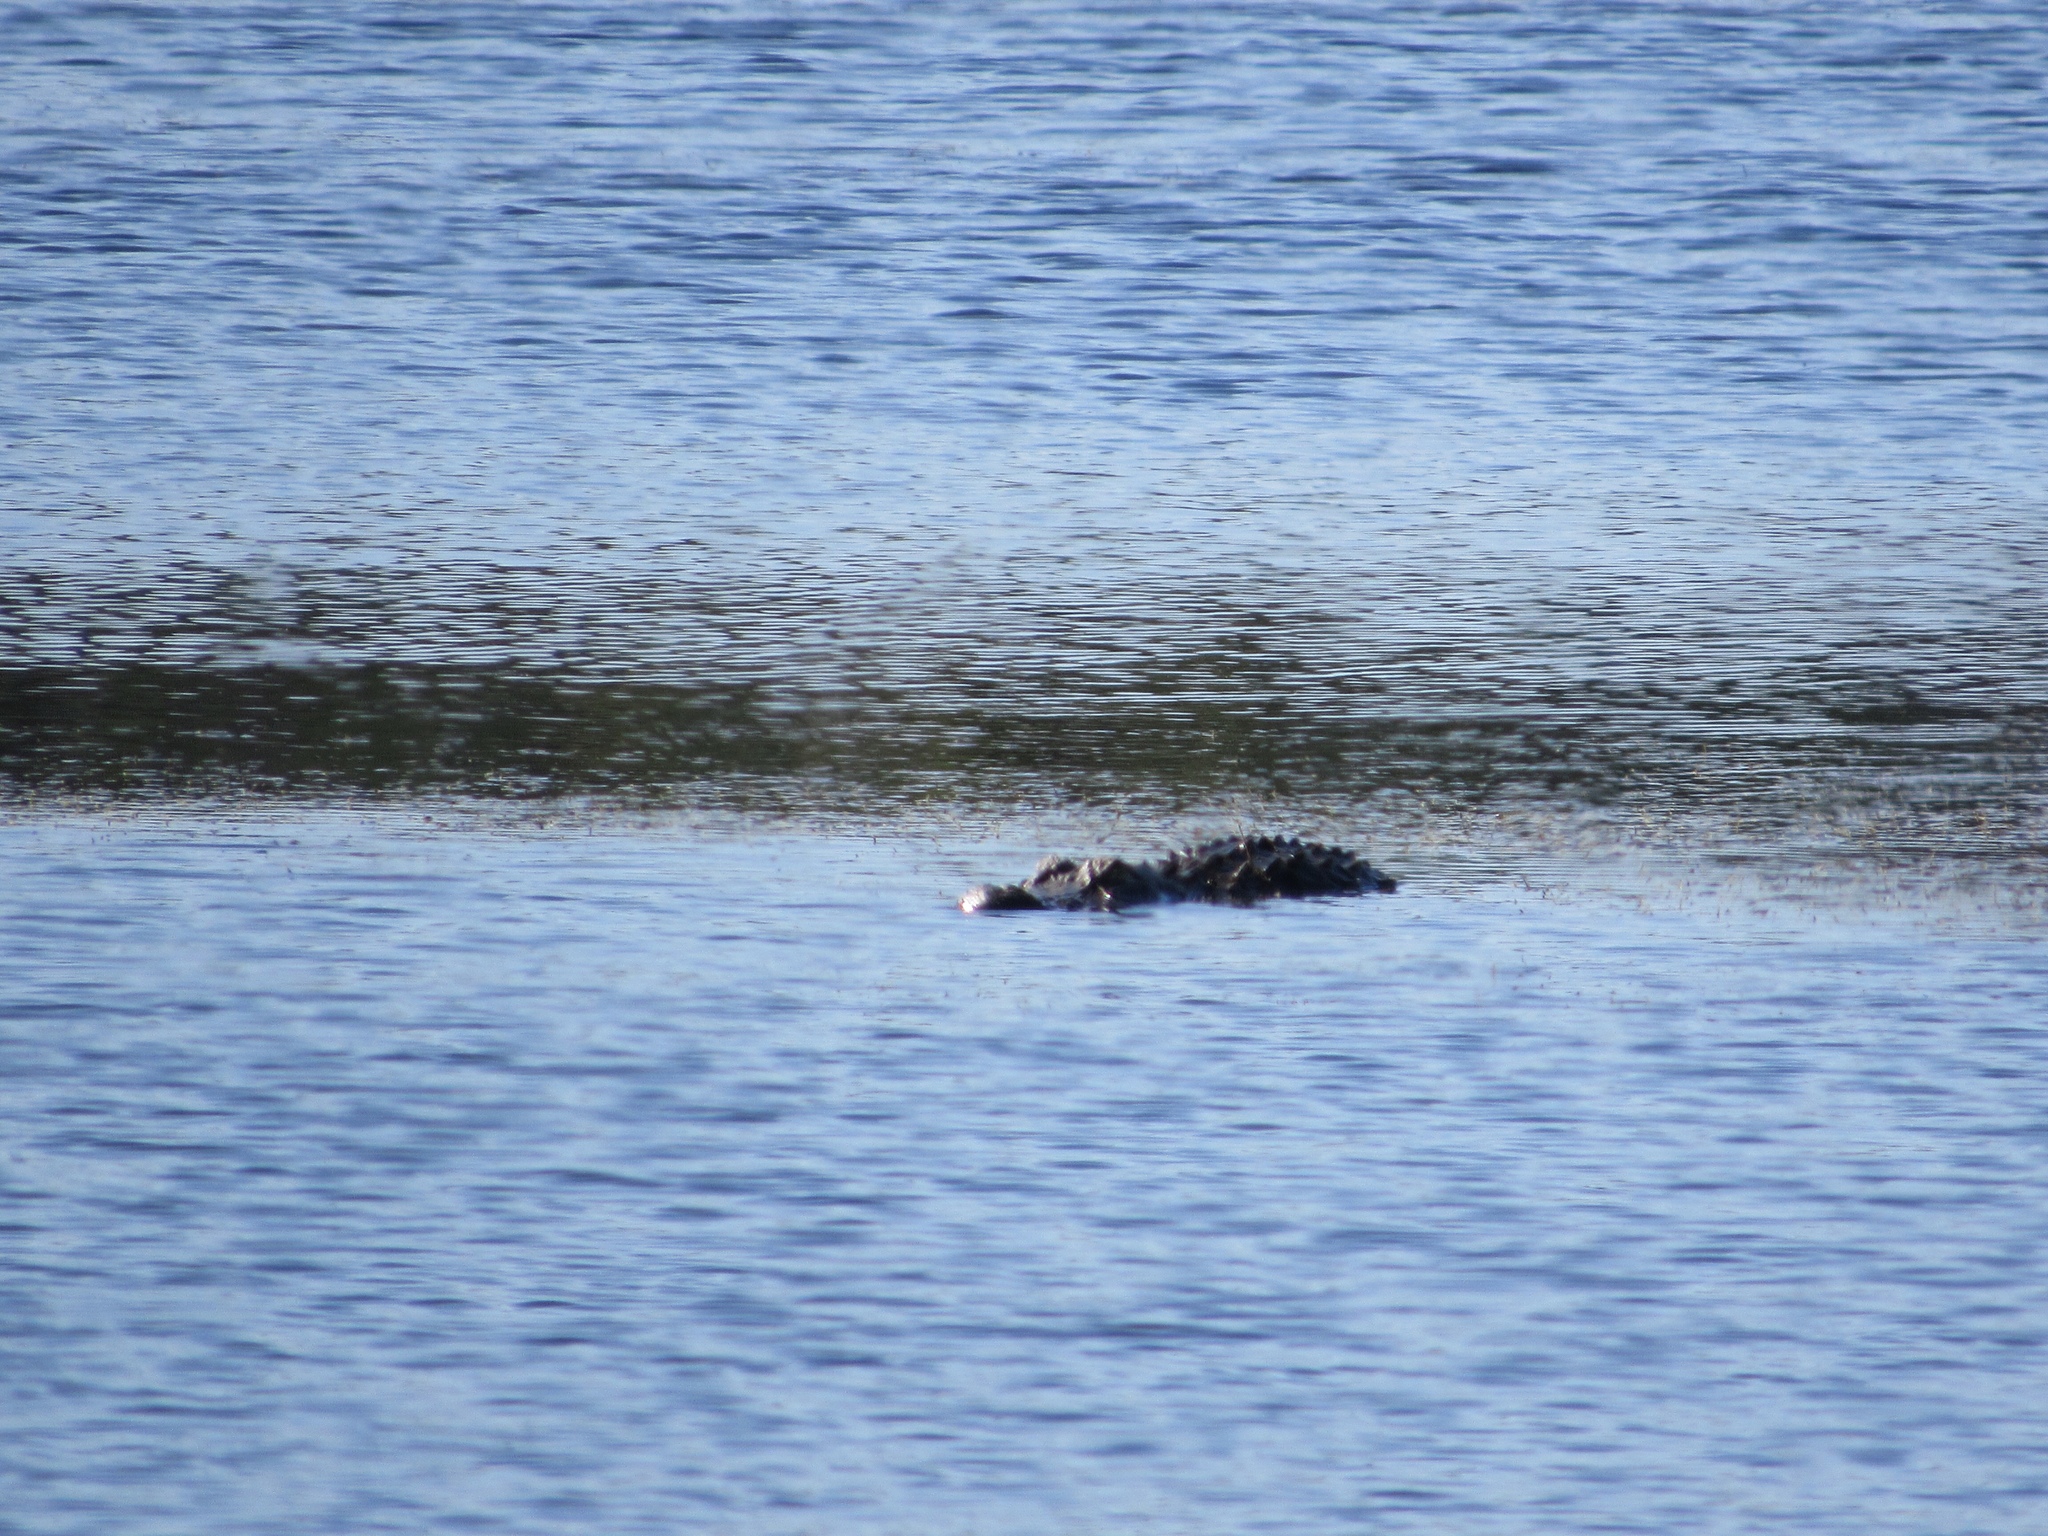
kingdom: Animalia
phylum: Chordata
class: Crocodylia
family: Alligatoridae
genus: Alligator
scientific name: Alligator mississippiensis
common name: American alligator
